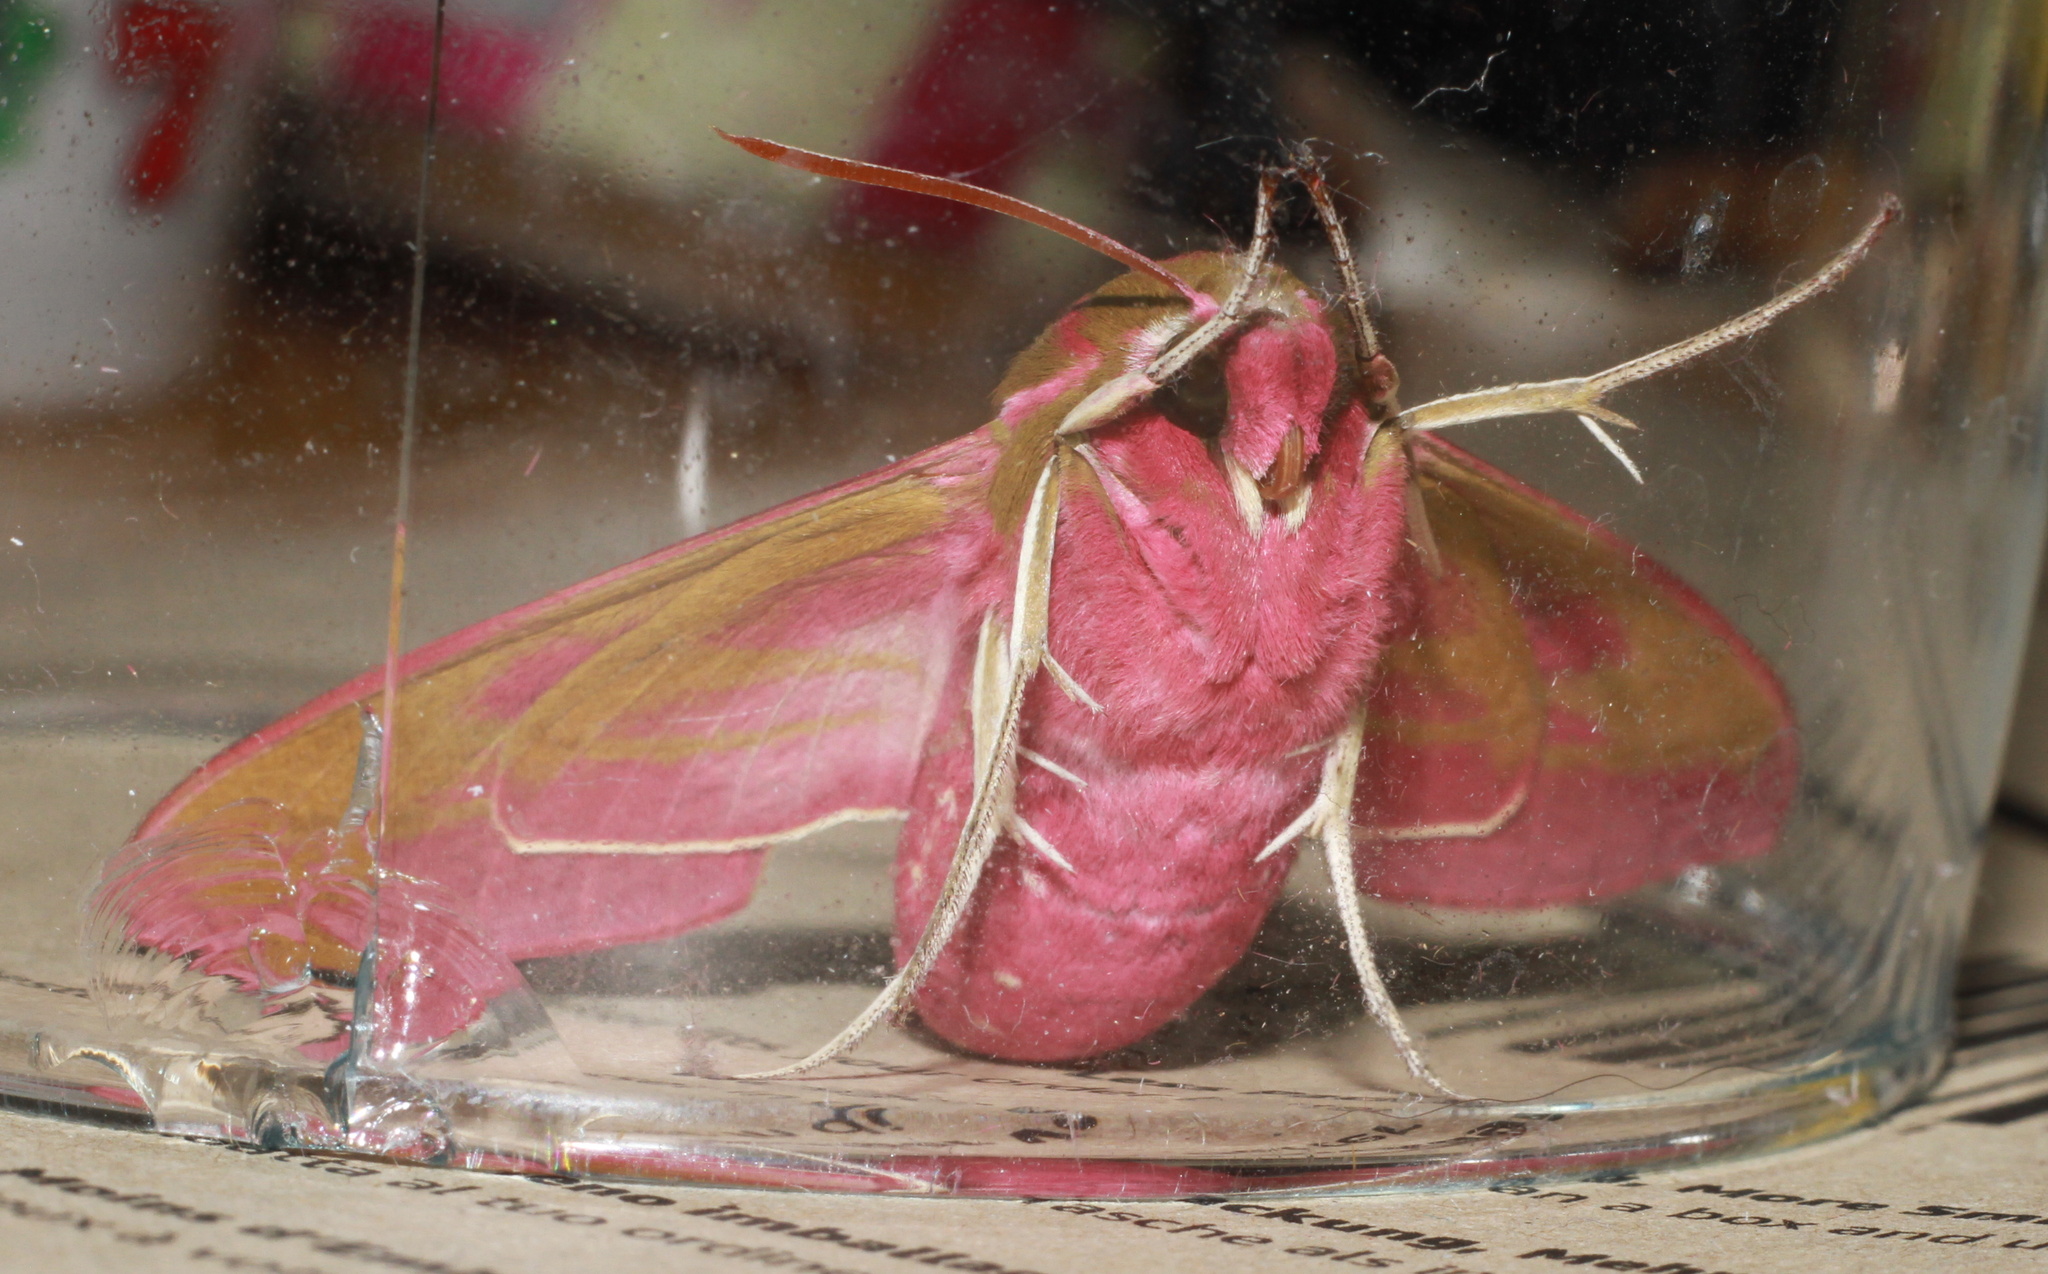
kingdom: Animalia
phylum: Arthropoda
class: Insecta
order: Lepidoptera
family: Sphingidae
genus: Deilephila
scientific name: Deilephila elpenor
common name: Elephant hawk-moth
